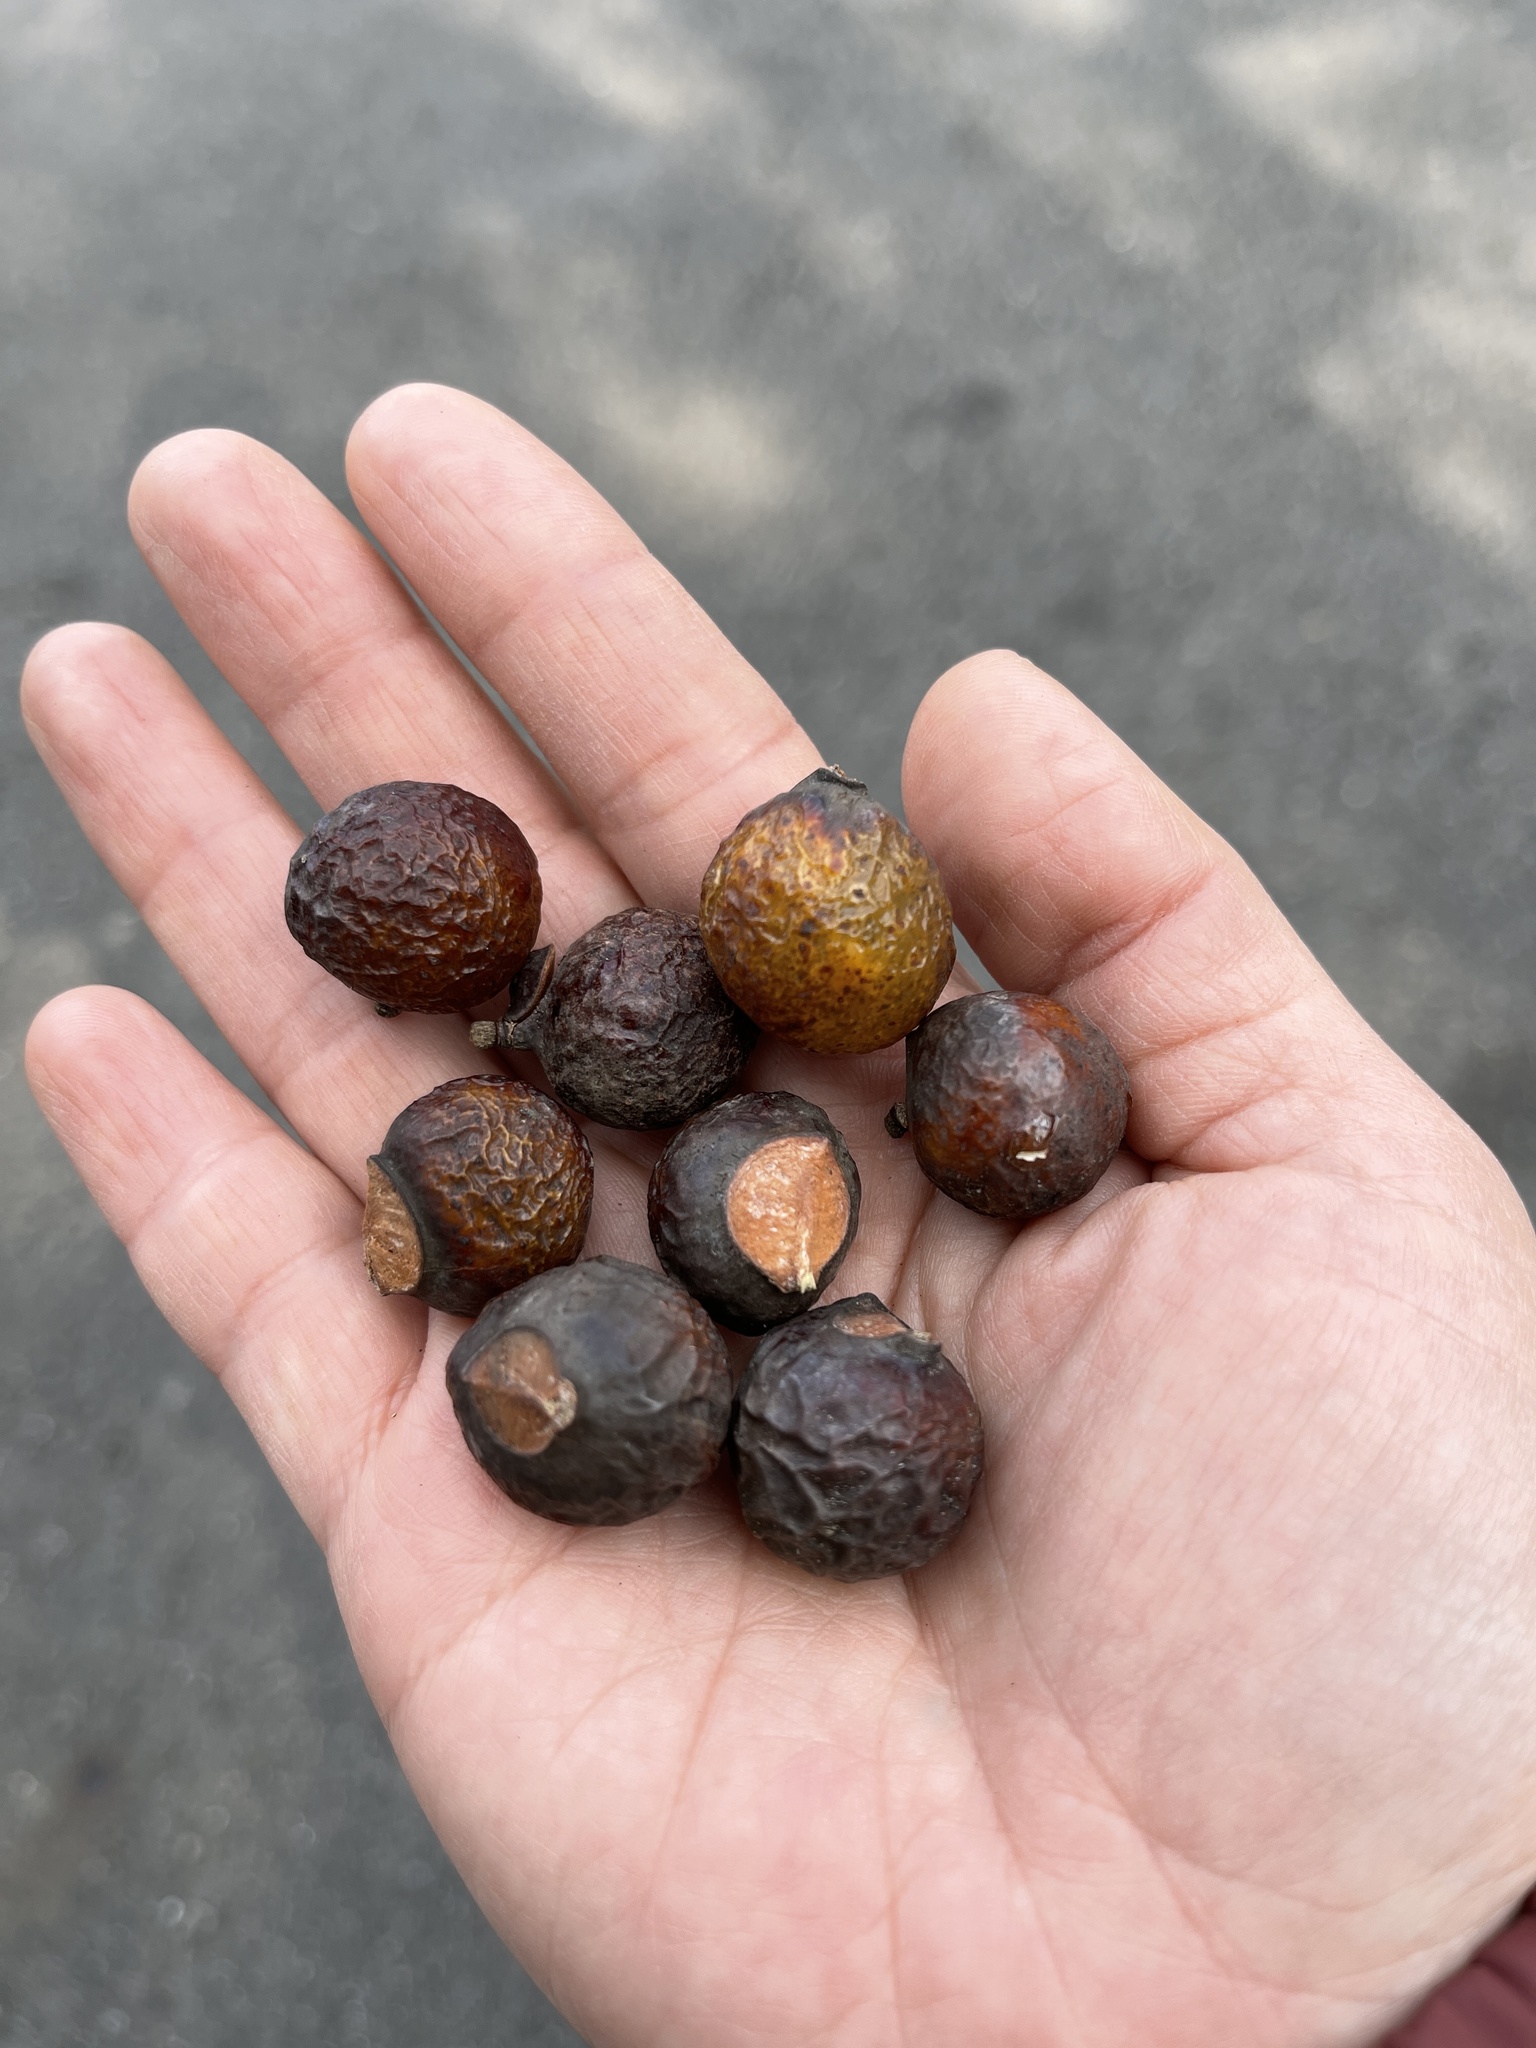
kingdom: Plantae
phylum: Tracheophyta
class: Magnoliopsida
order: Sapindales
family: Sapindaceae
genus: Sapindus
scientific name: Sapindus mukorossi
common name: Chinese soapberry
